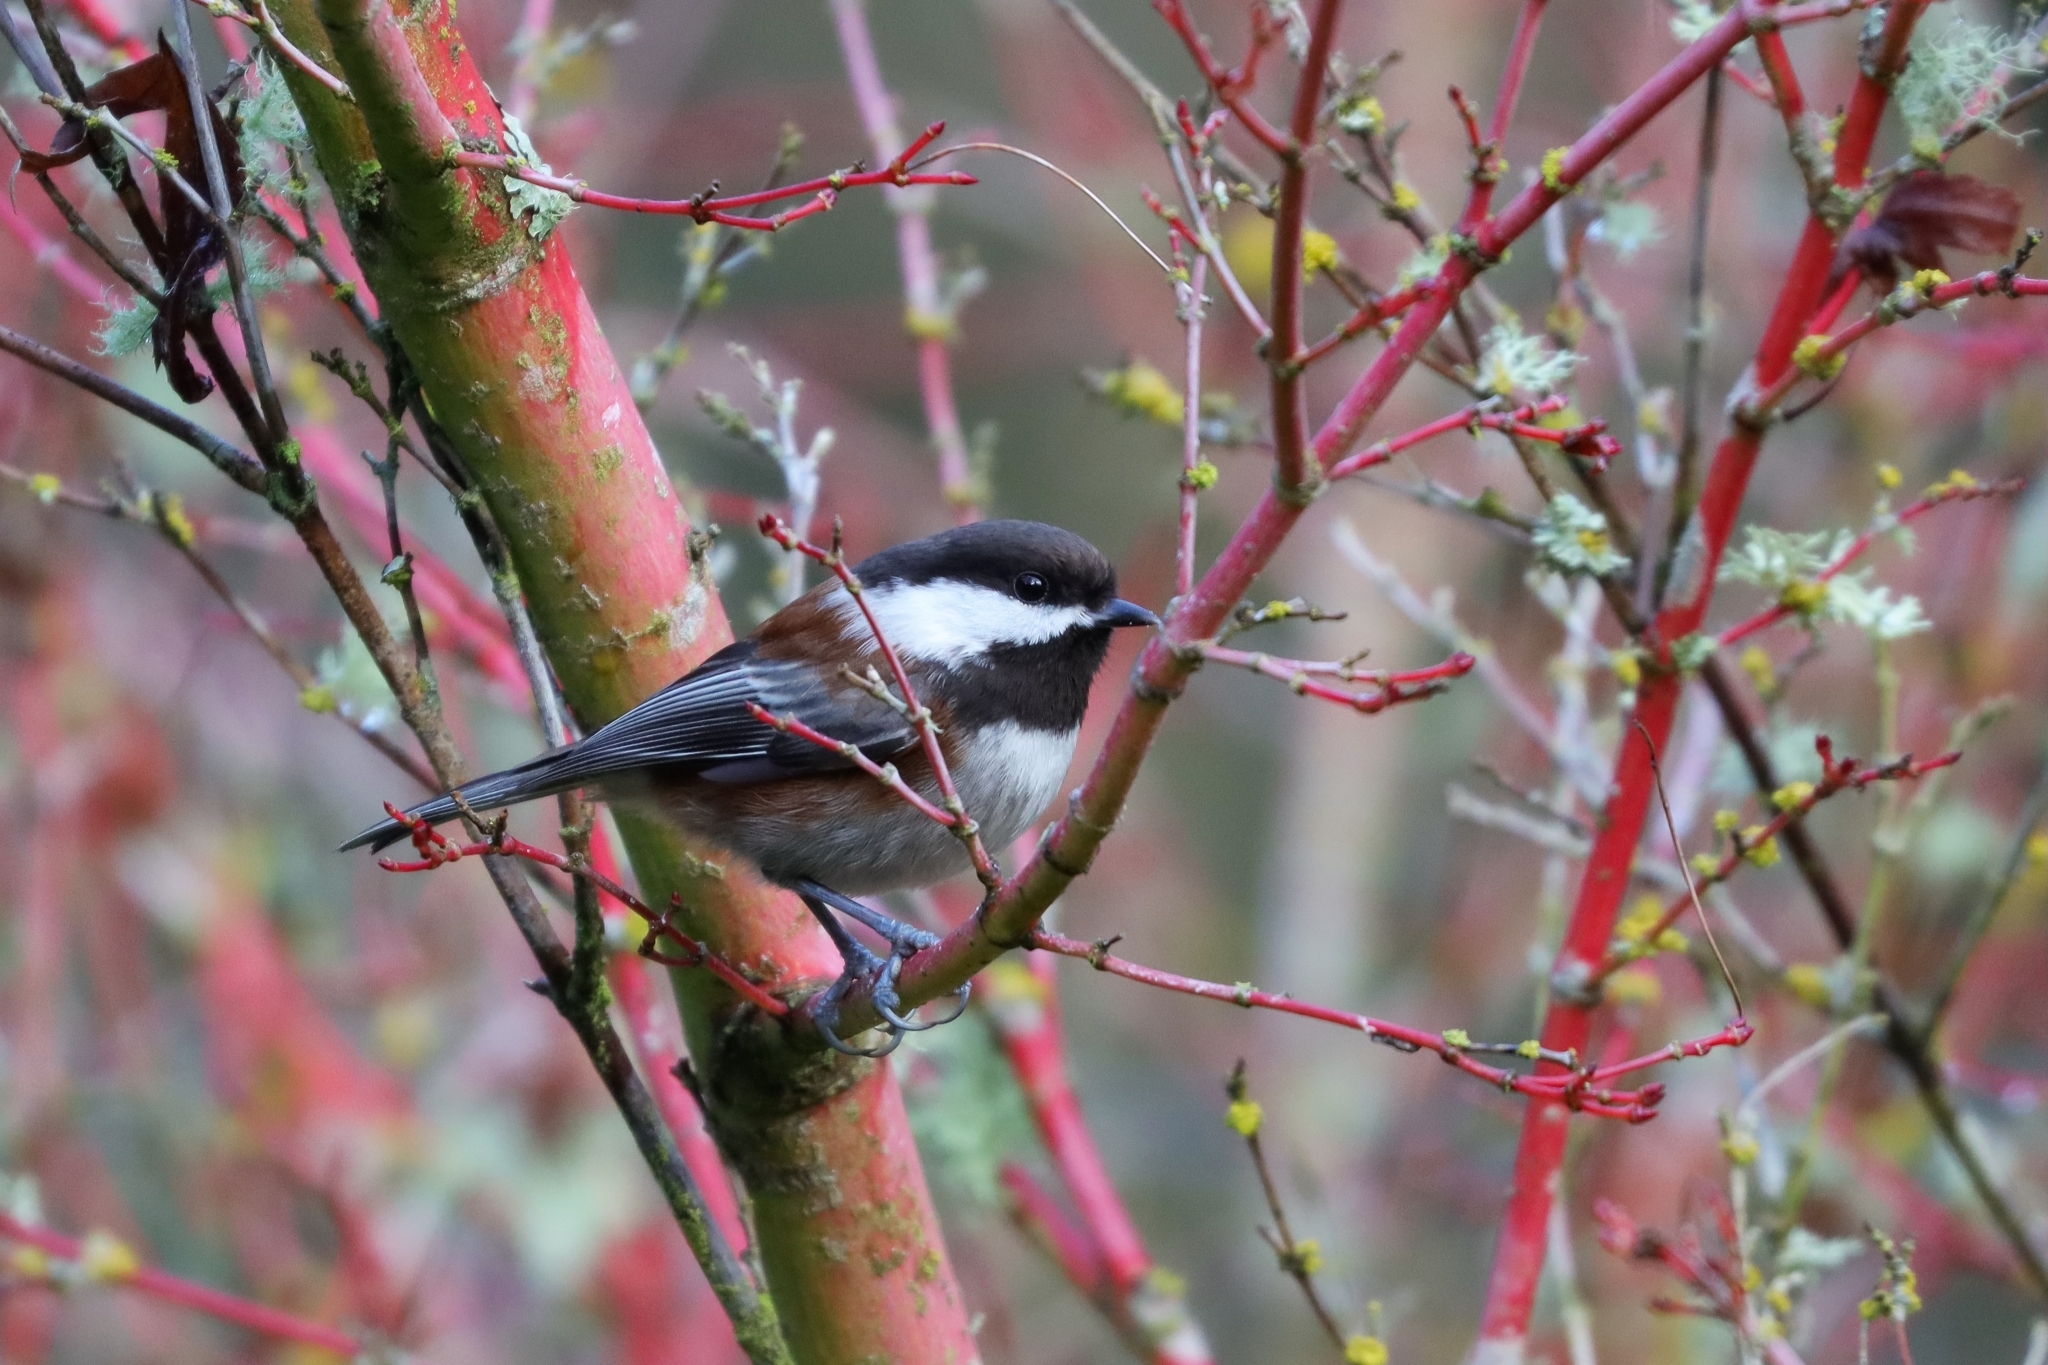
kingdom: Animalia
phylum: Chordata
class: Aves
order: Passeriformes
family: Paridae
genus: Poecile
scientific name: Poecile rufescens
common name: Chestnut-backed chickadee
